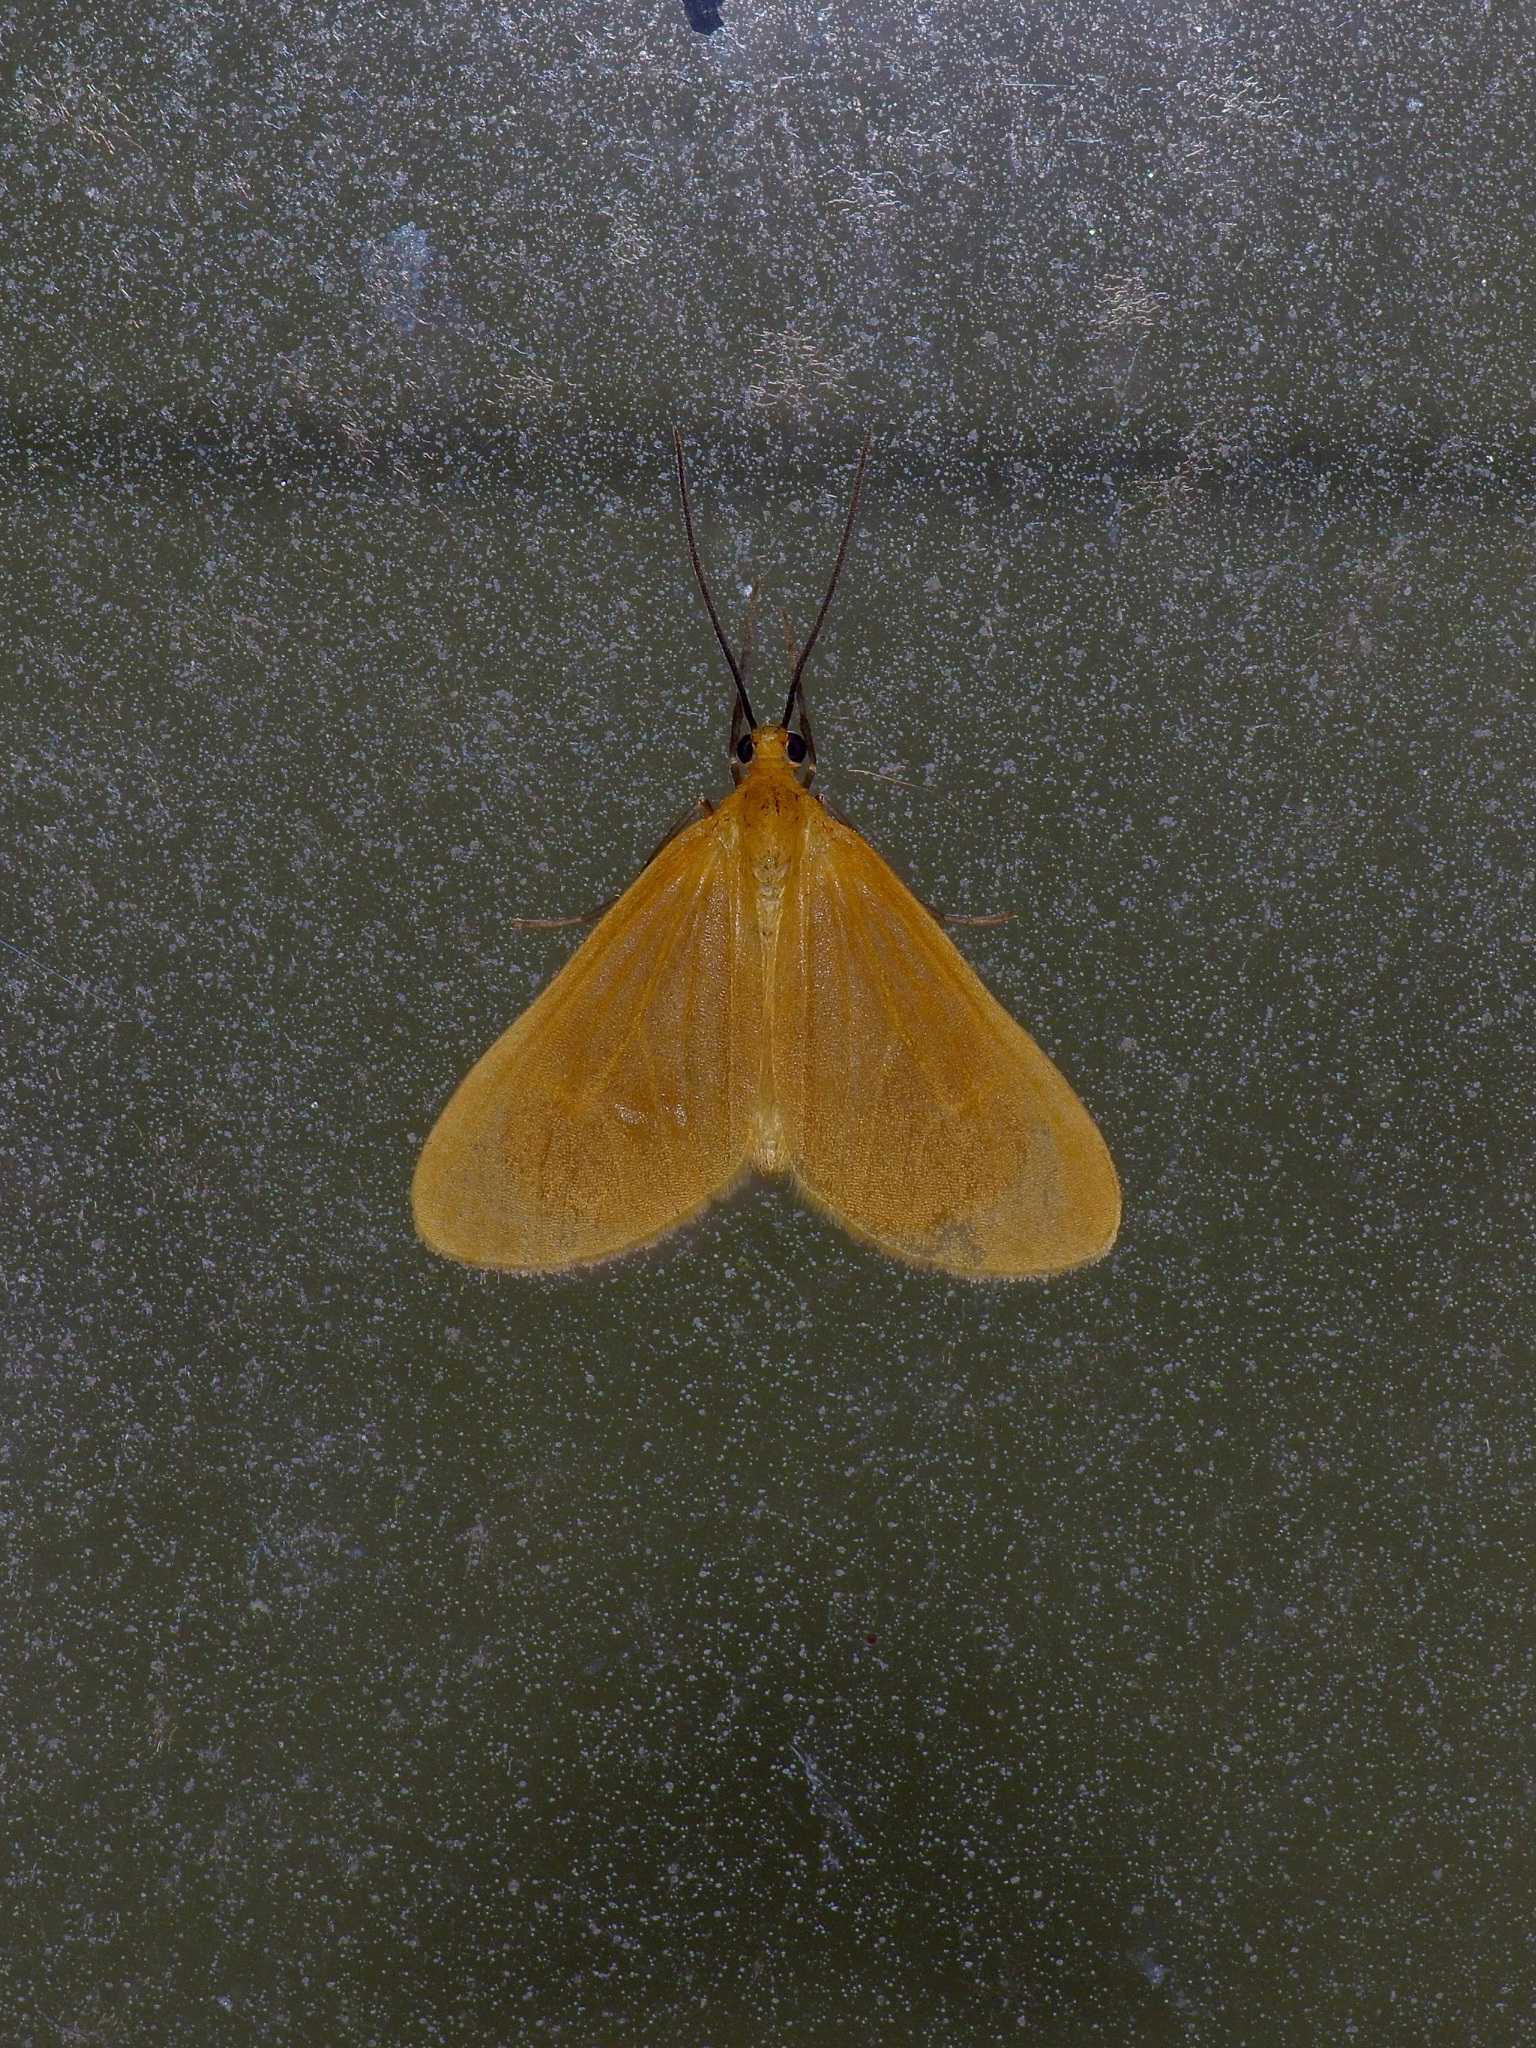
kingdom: Animalia
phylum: Arthropoda
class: Insecta
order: Lepidoptera
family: Geometridae
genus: Eubaphe
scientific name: Eubaphe unicolor
